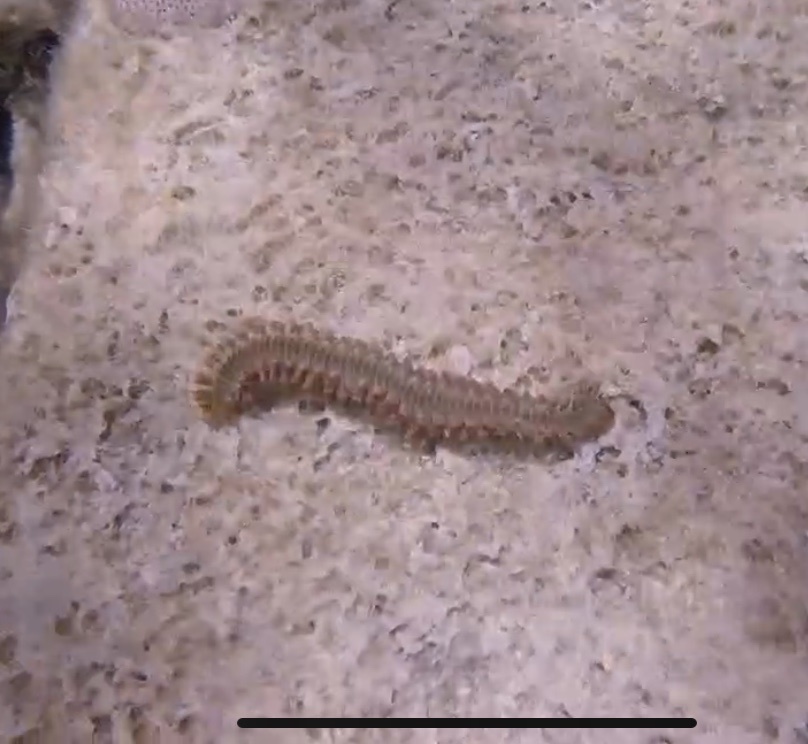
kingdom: Animalia
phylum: Annelida
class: Polychaeta
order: Amphinomida
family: Amphinomidae
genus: Hermodice
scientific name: Hermodice carunculata
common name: Bearded fireworm
